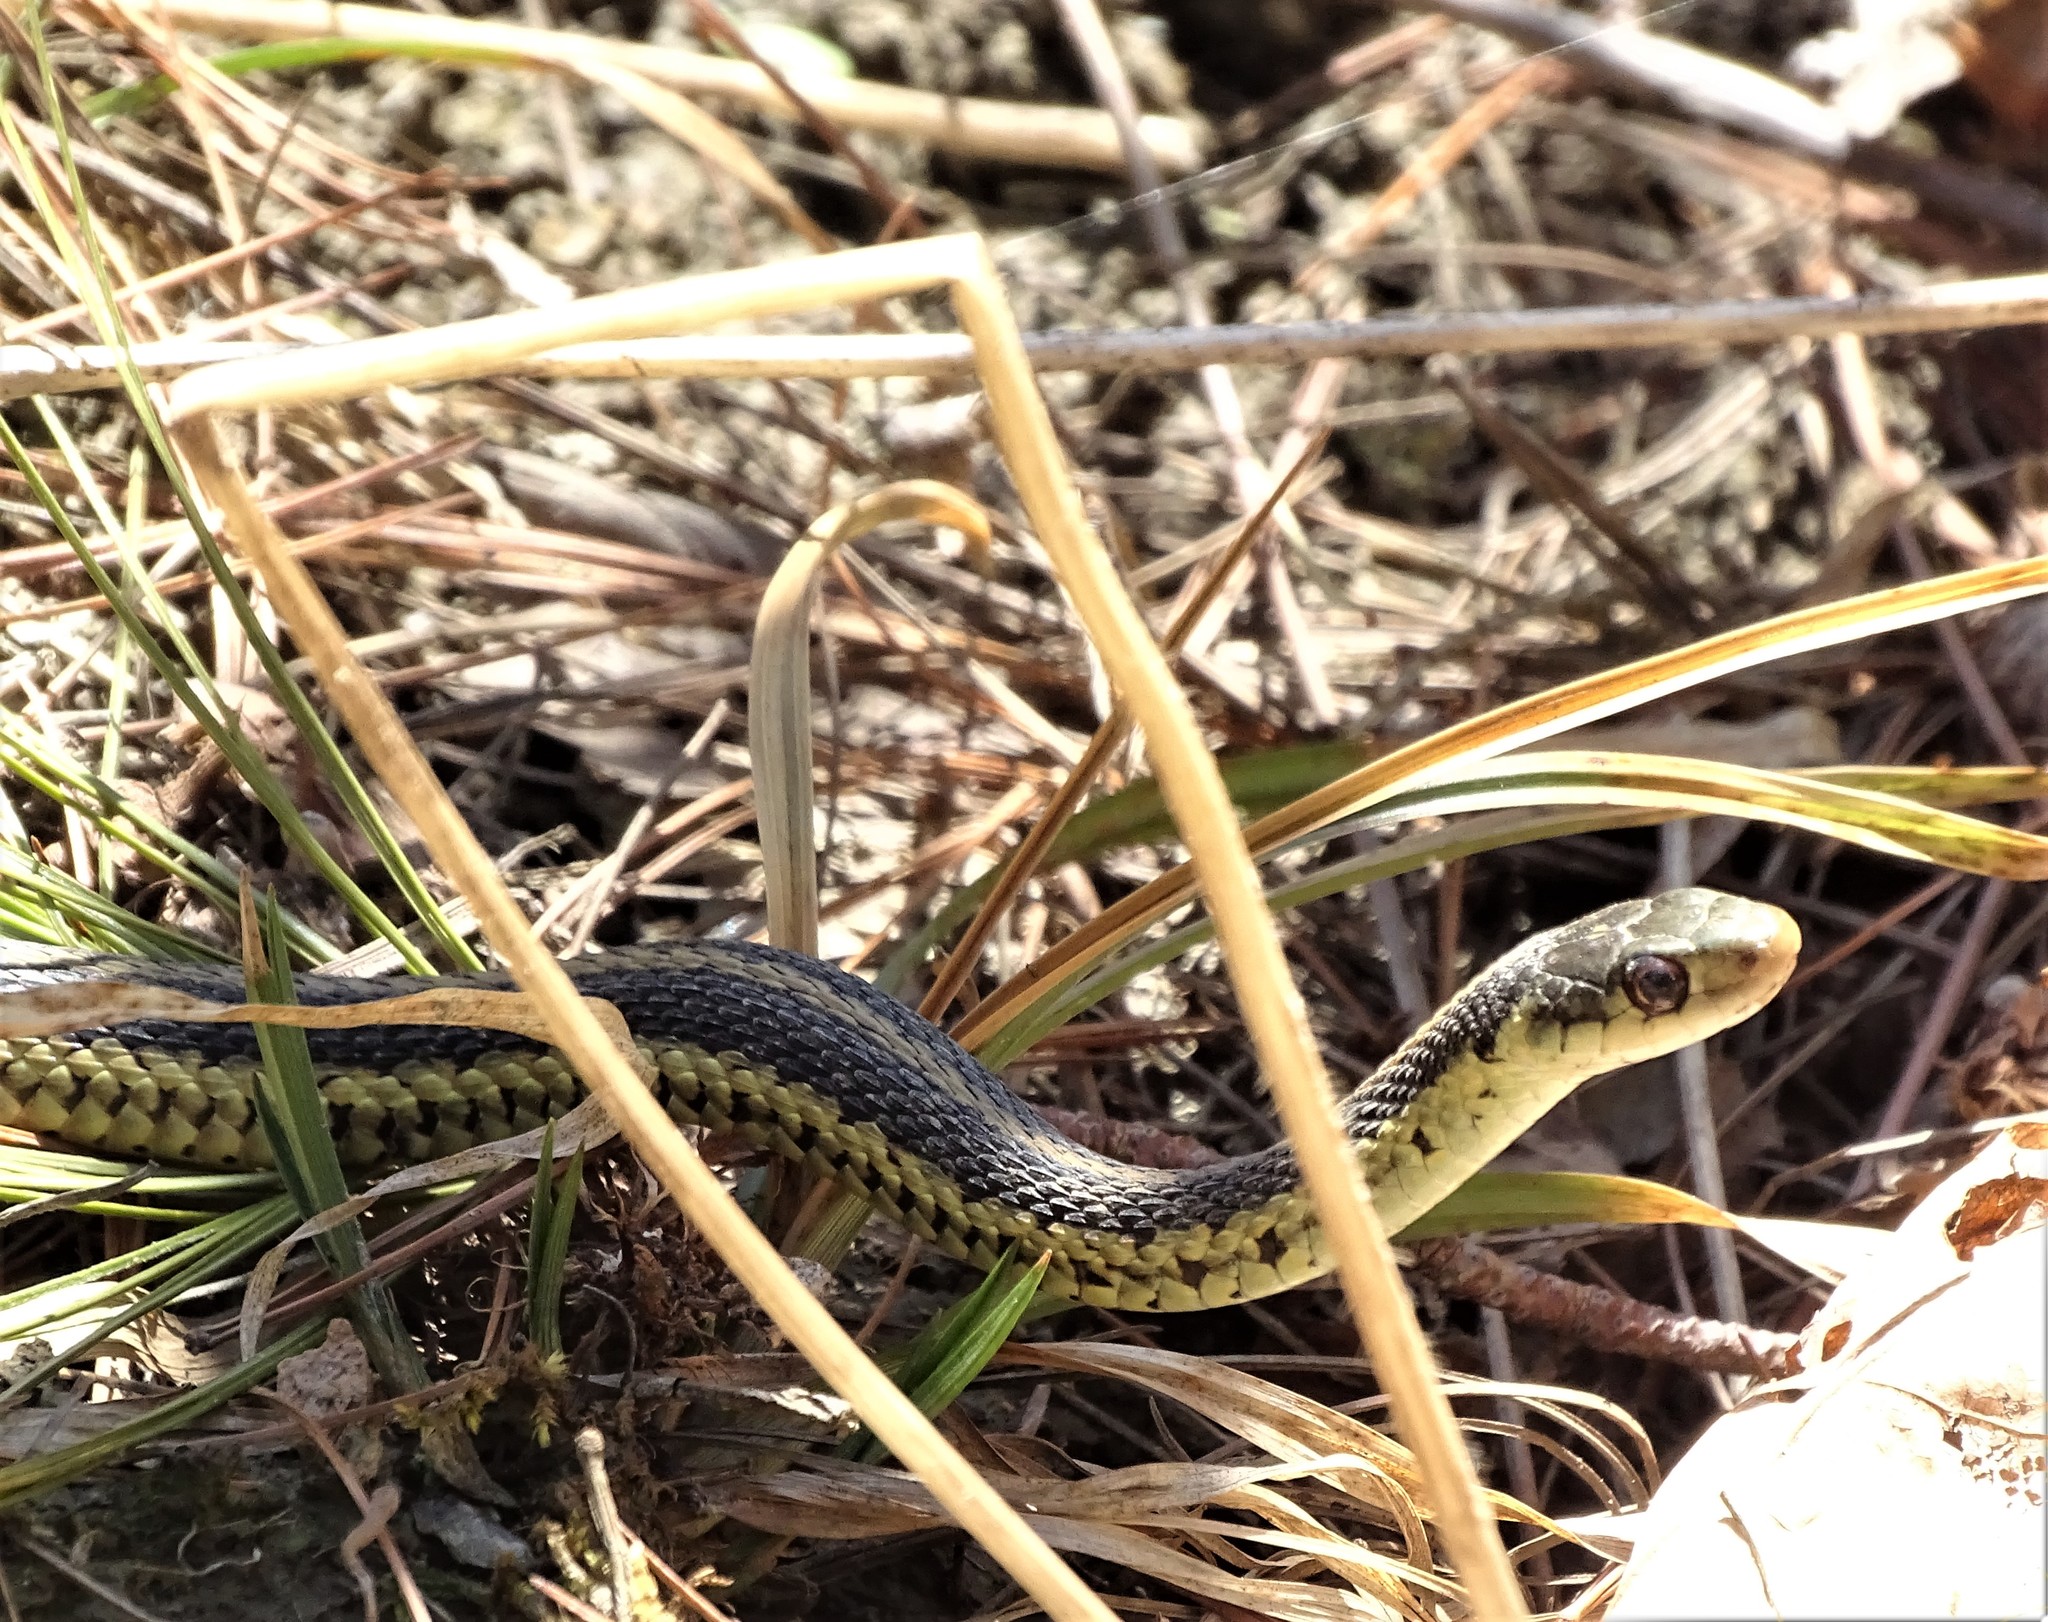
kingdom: Animalia
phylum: Chordata
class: Squamata
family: Colubridae
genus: Thamnophis
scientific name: Thamnophis sirtalis
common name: Common garter snake
